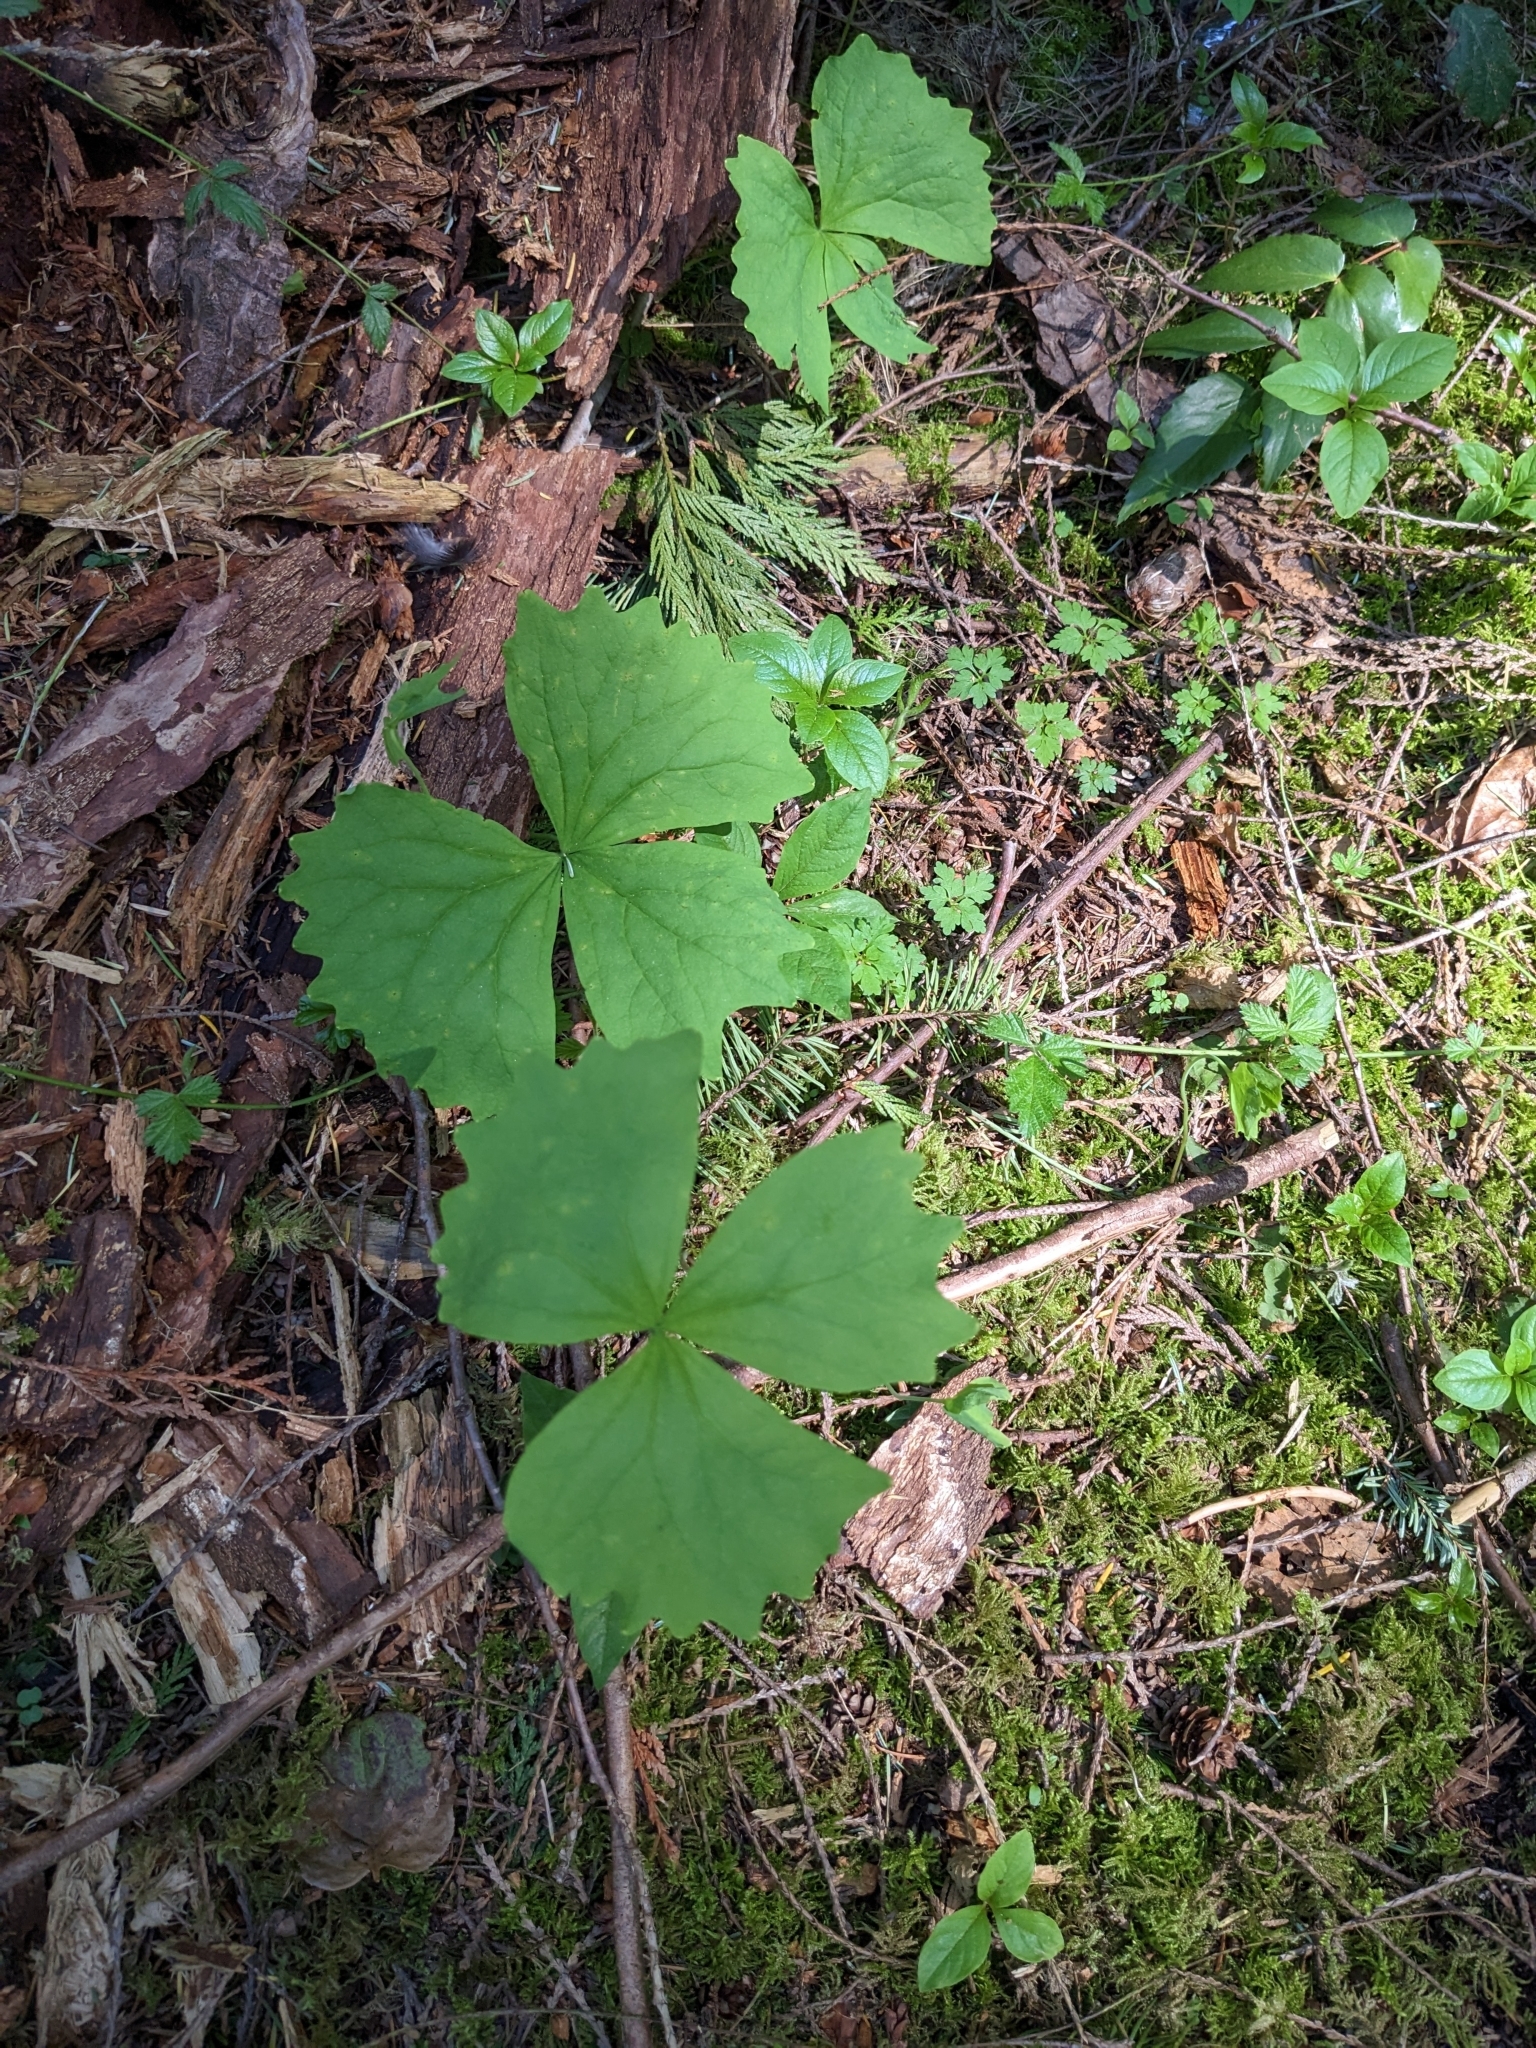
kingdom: Plantae
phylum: Tracheophyta
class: Magnoliopsida
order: Ranunculales
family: Berberidaceae
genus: Achlys
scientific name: Achlys triphylla
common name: Vanilla-leaf
